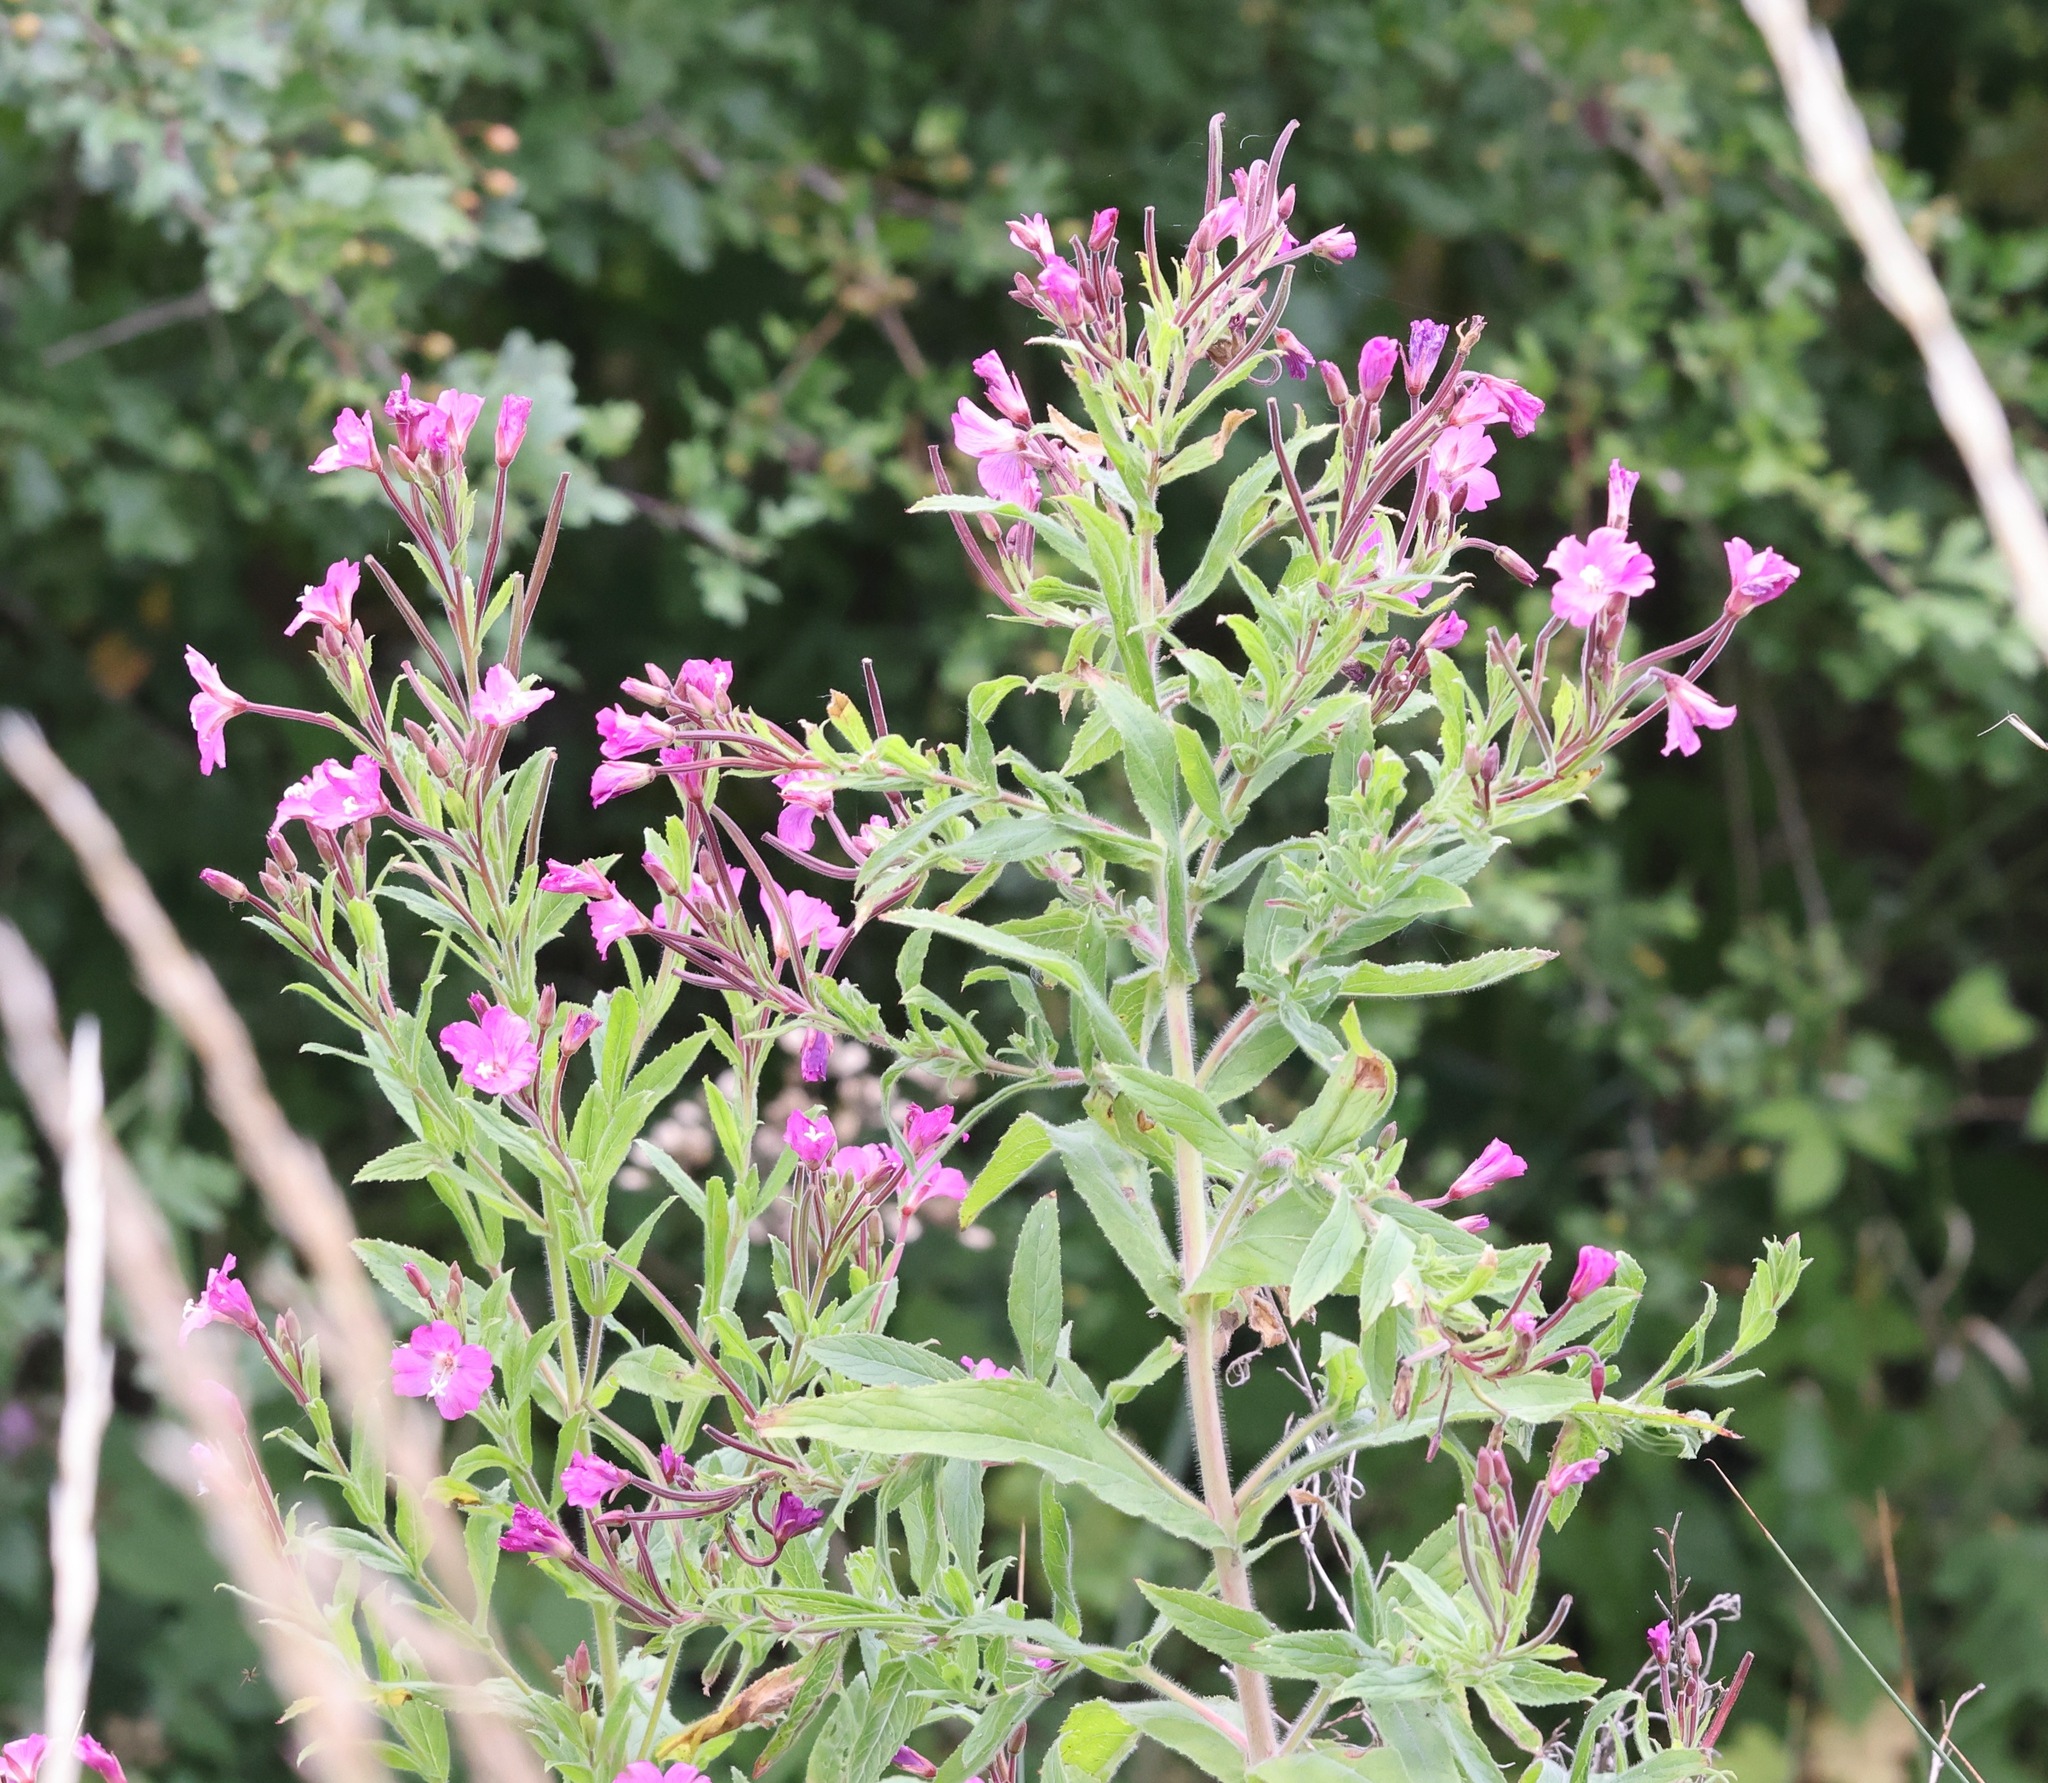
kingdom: Plantae
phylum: Tracheophyta
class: Magnoliopsida
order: Myrtales
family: Onagraceae
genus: Epilobium
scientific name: Epilobium hirsutum
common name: Great willowherb
